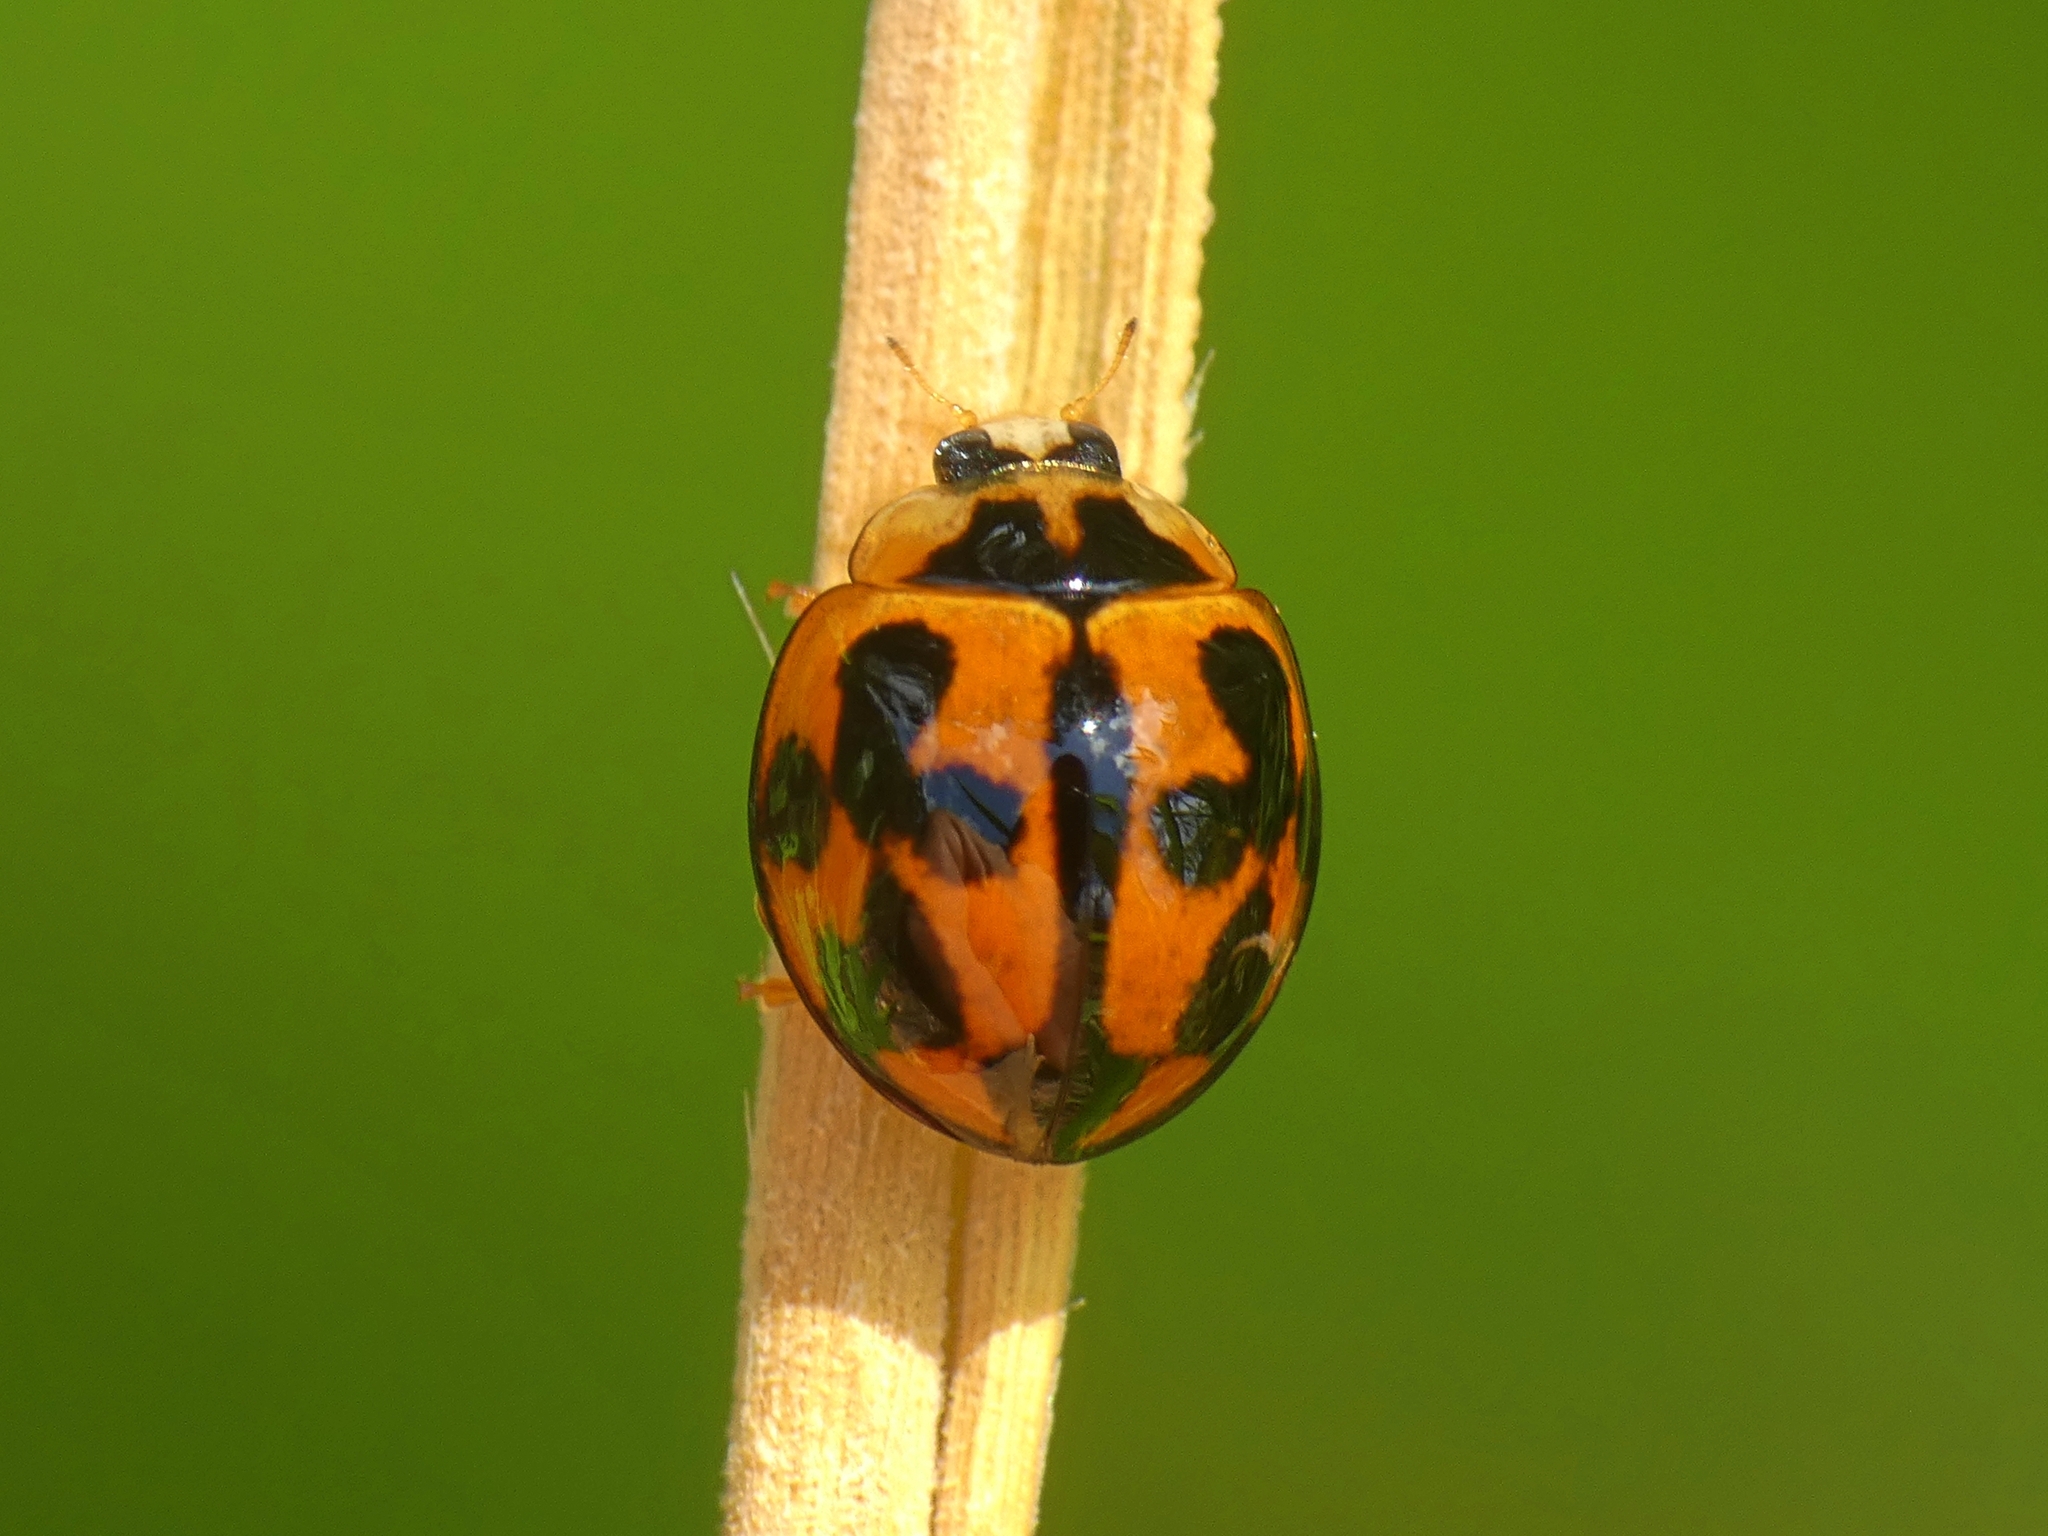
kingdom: Animalia
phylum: Arthropoda
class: Insecta
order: Coleoptera
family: Coccinellidae
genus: Coelophora
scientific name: Coelophora inaequalis
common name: Common australian lady beetle
